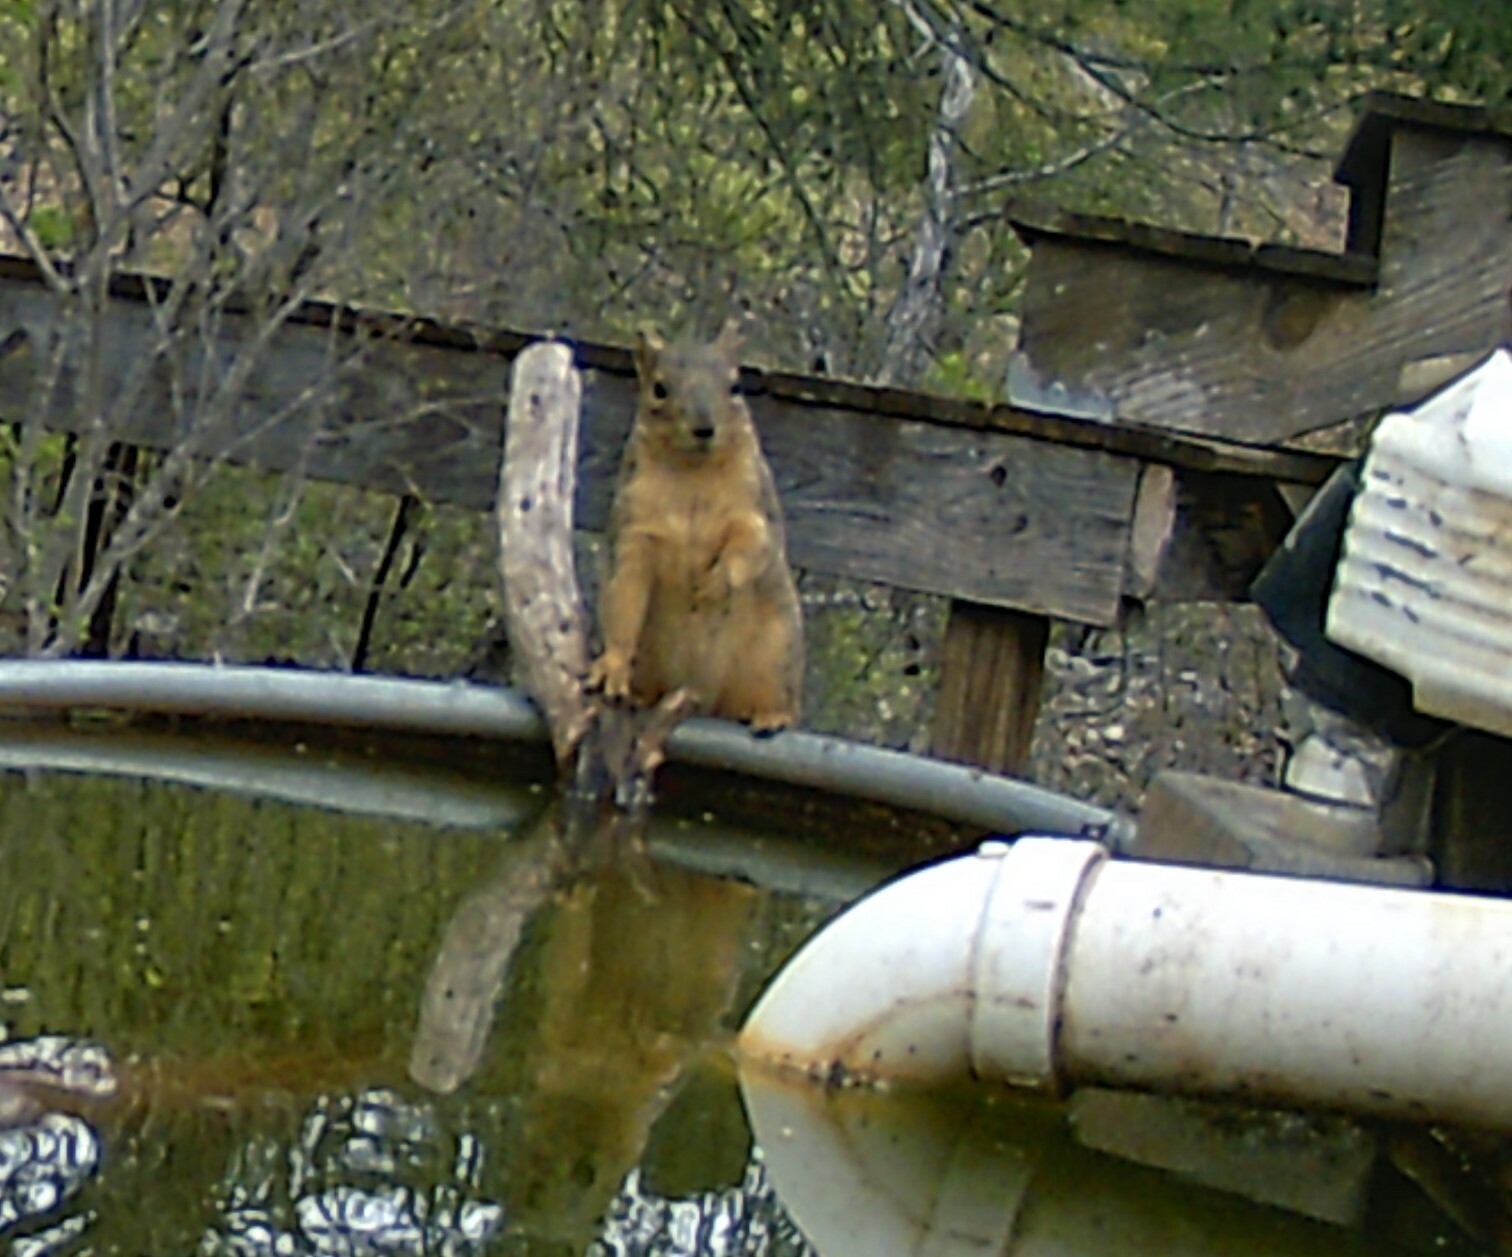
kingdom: Animalia
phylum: Chordata
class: Mammalia
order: Rodentia
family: Sciuridae
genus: Sciurus
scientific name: Sciurus niger
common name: Fox squirrel
